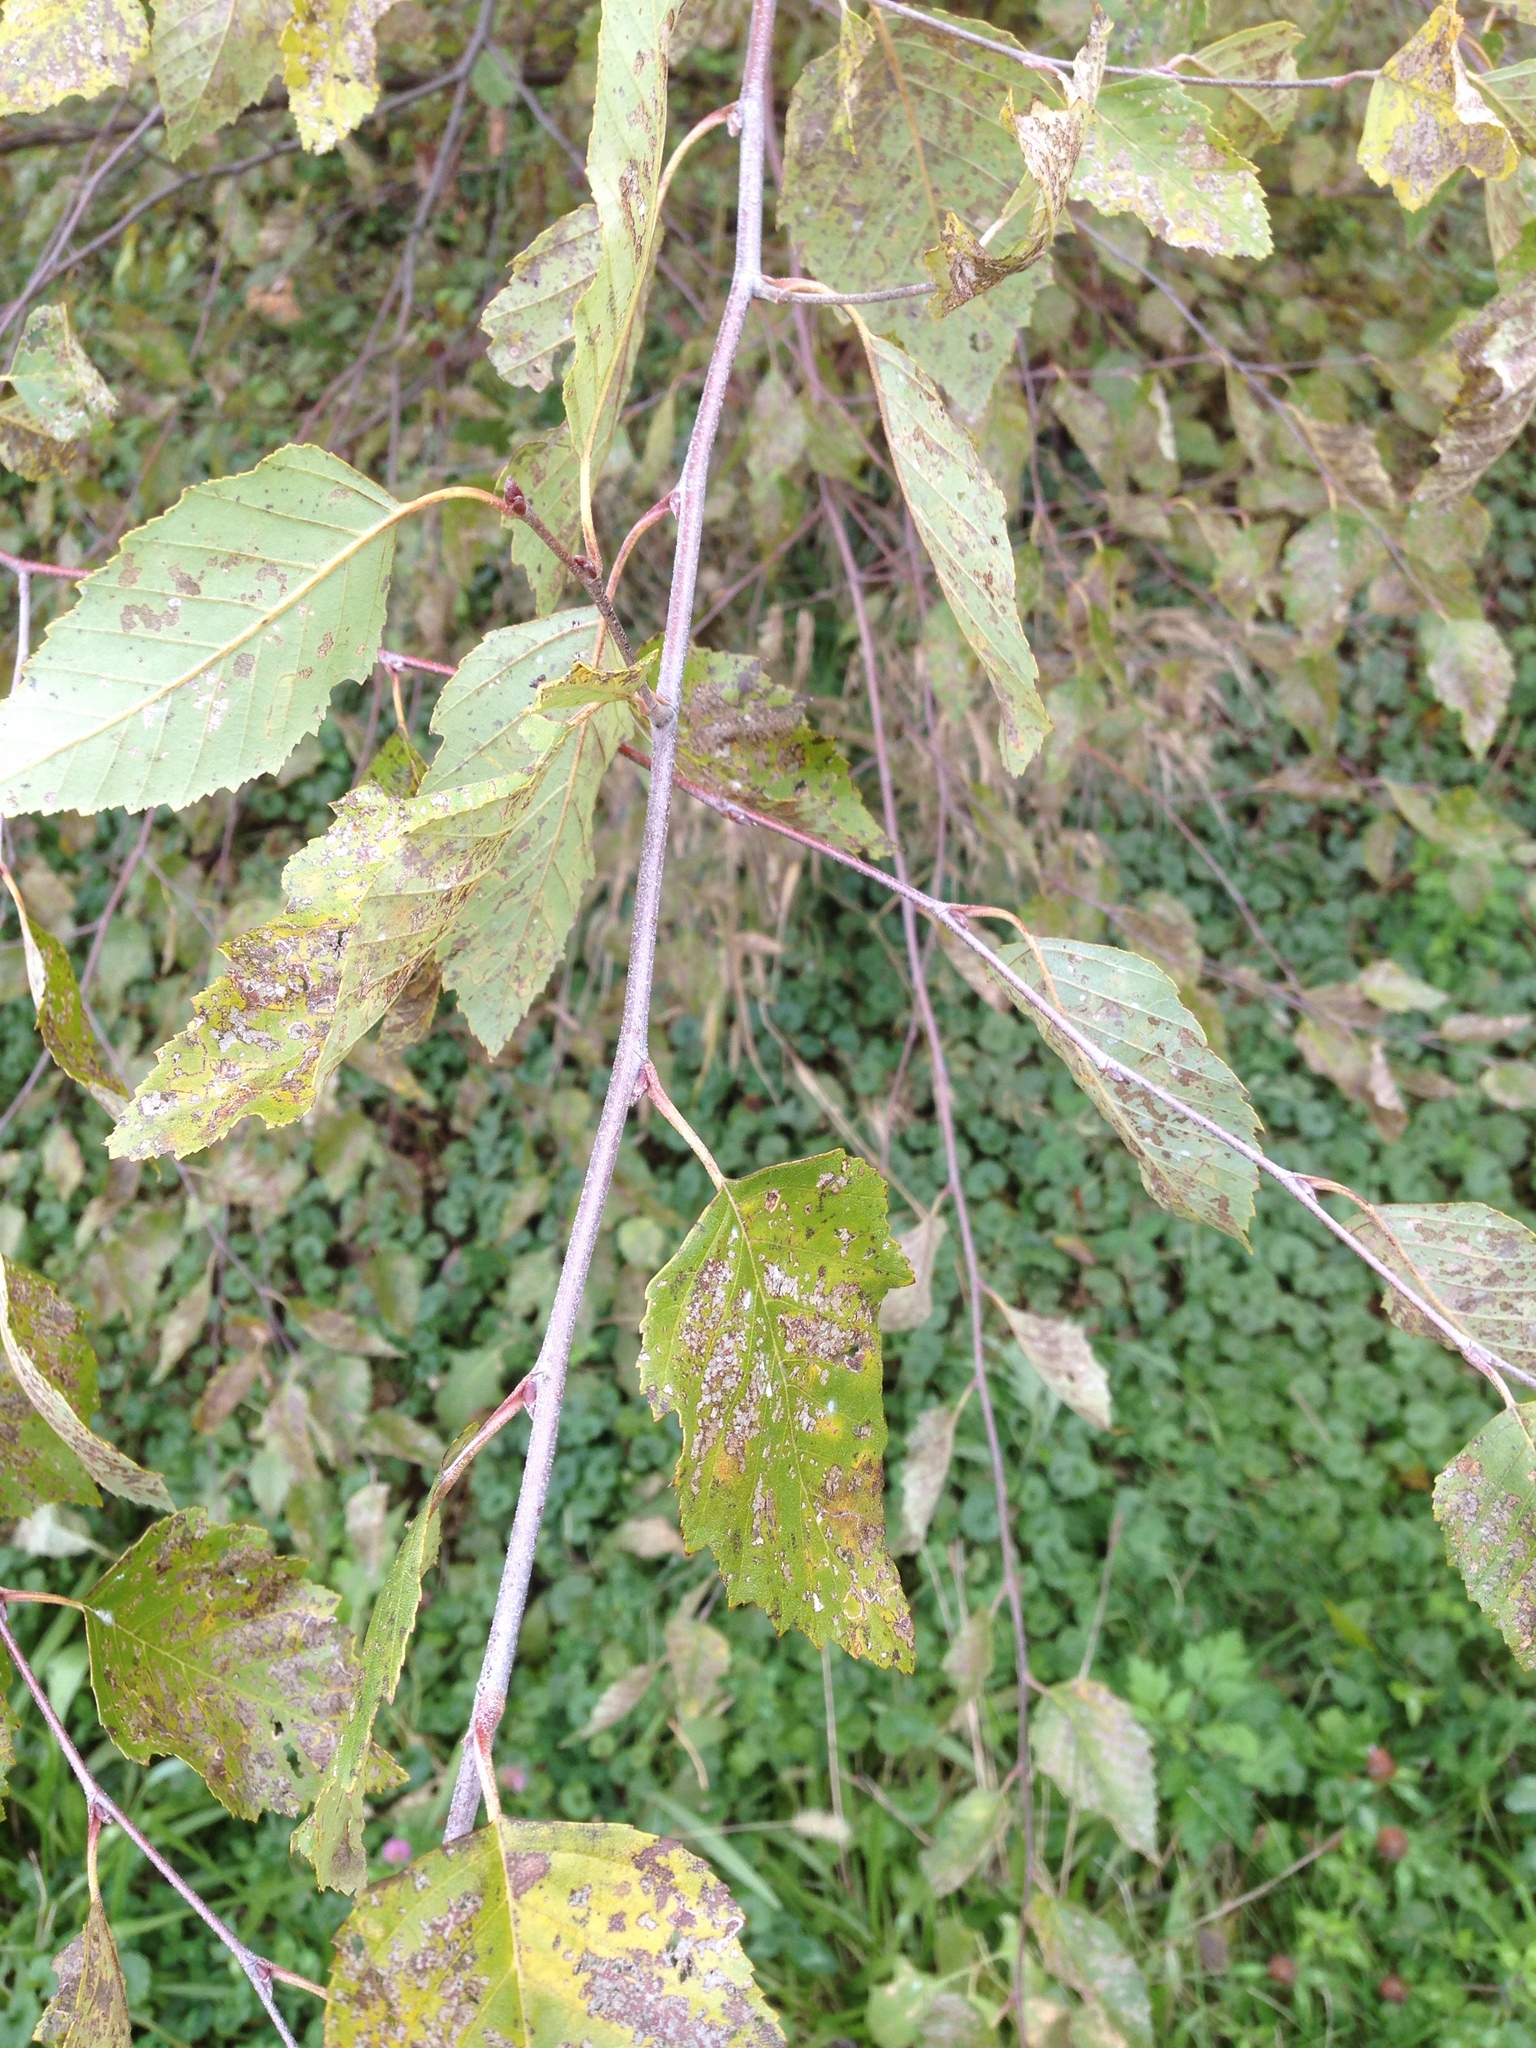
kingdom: Plantae
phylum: Tracheophyta
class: Magnoliopsida
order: Fagales
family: Betulaceae
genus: Betula
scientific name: Betula nigra
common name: Black birch
